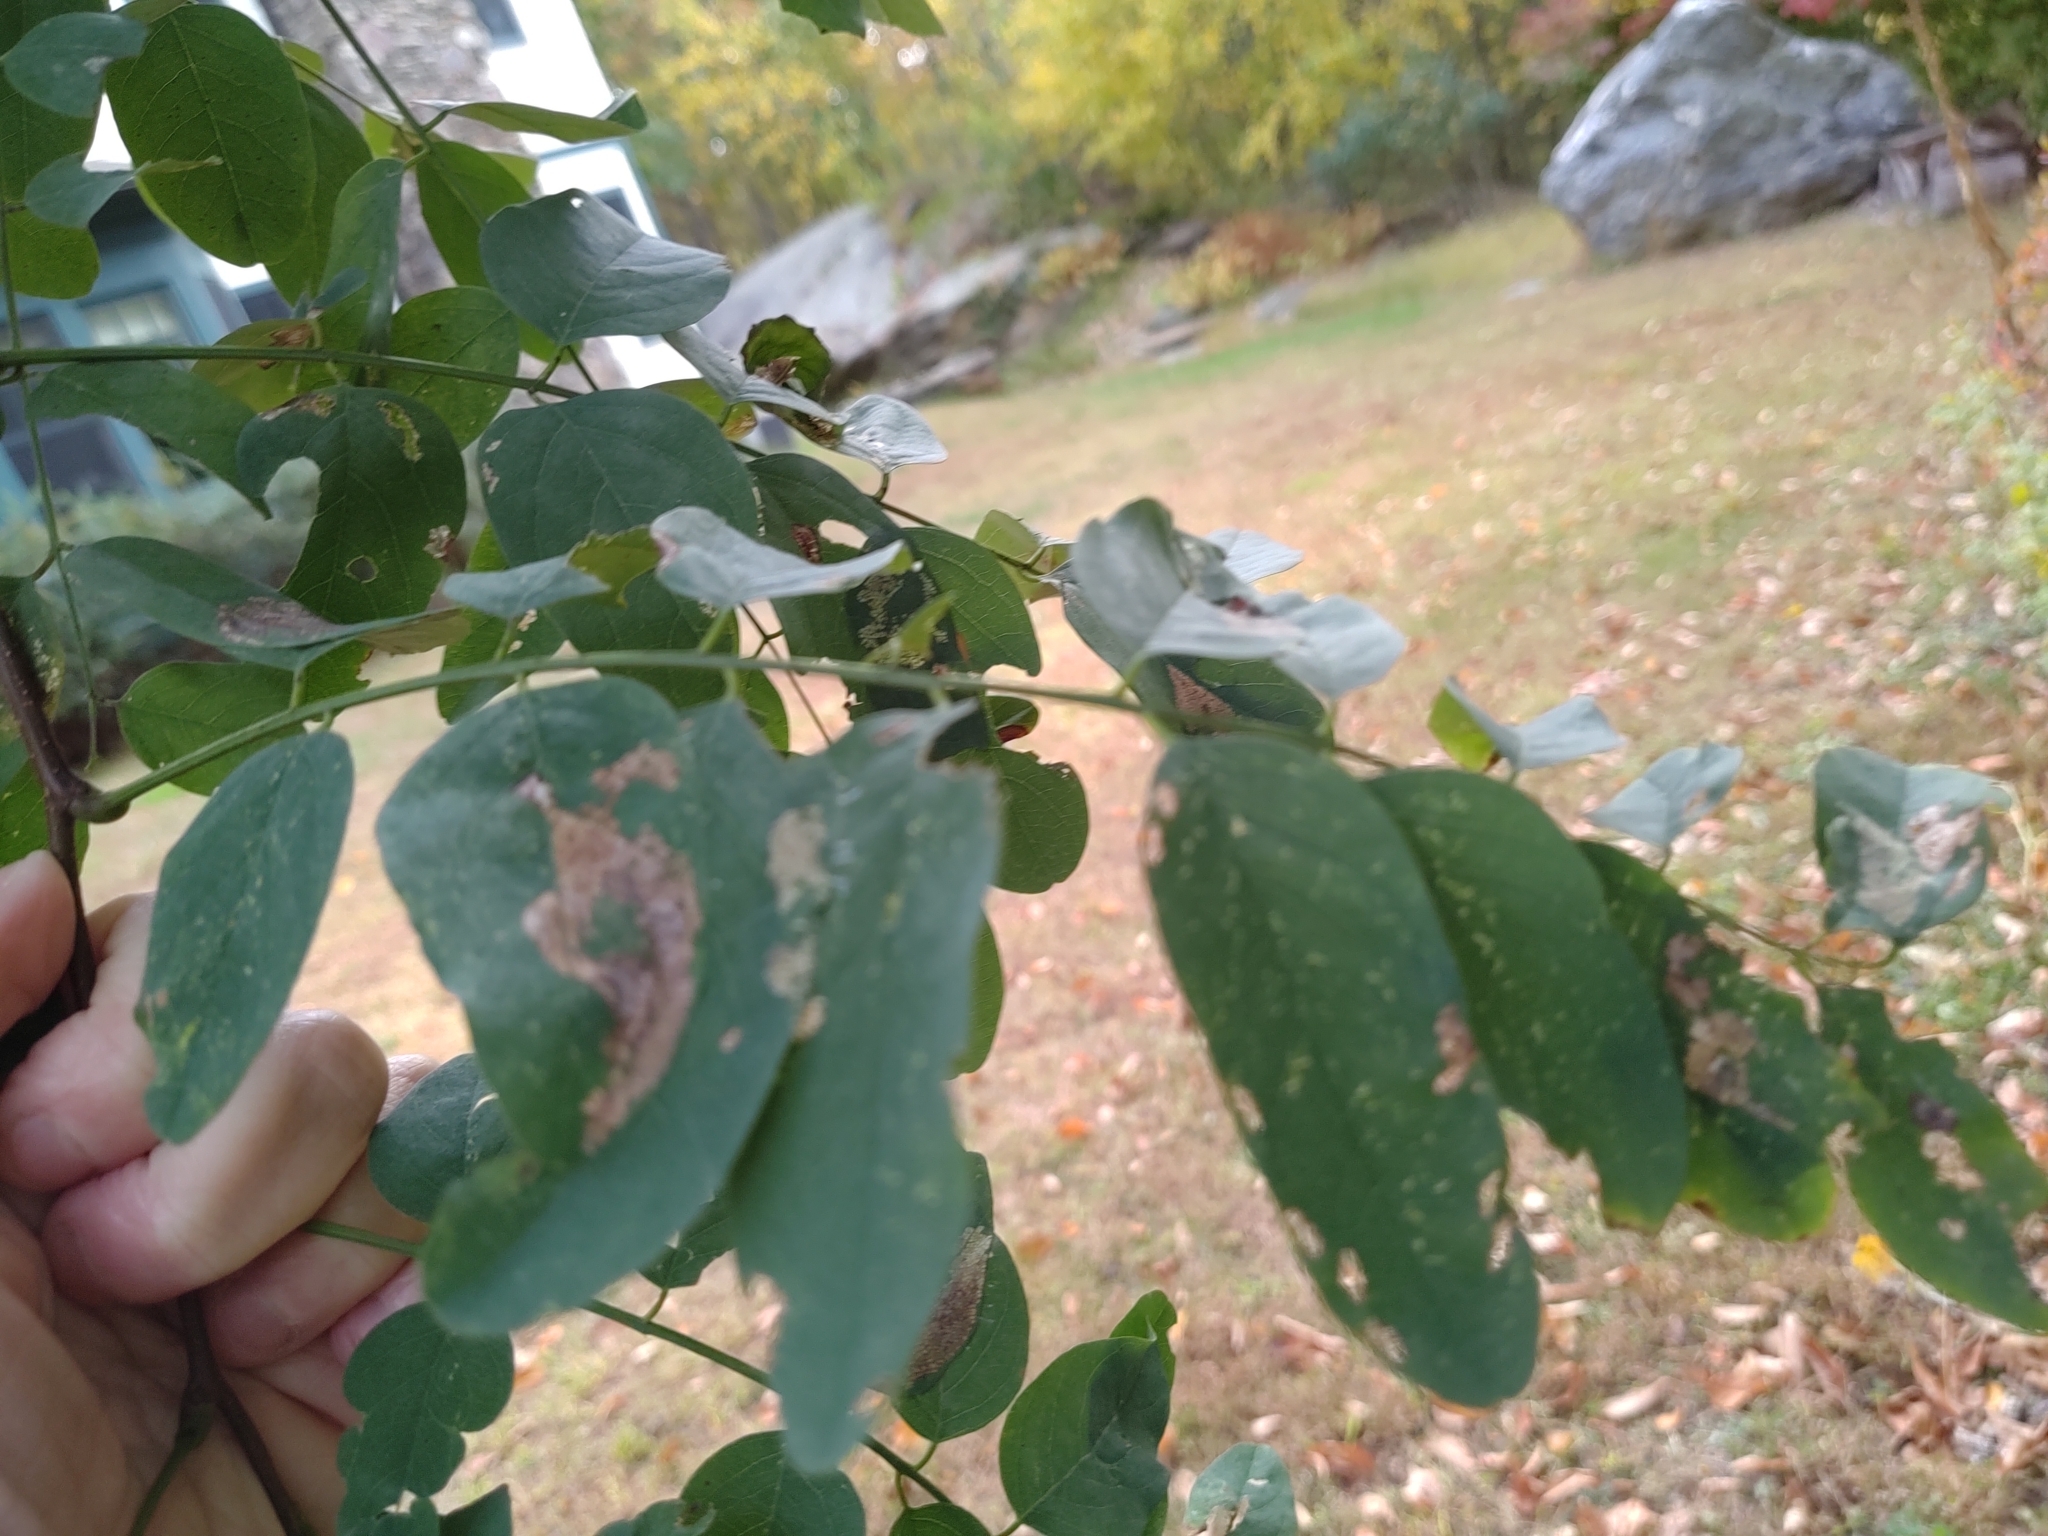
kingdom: Plantae
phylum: Tracheophyta
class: Magnoliopsida
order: Fabales
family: Fabaceae
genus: Robinia
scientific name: Robinia pseudoacacia
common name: Black locust
